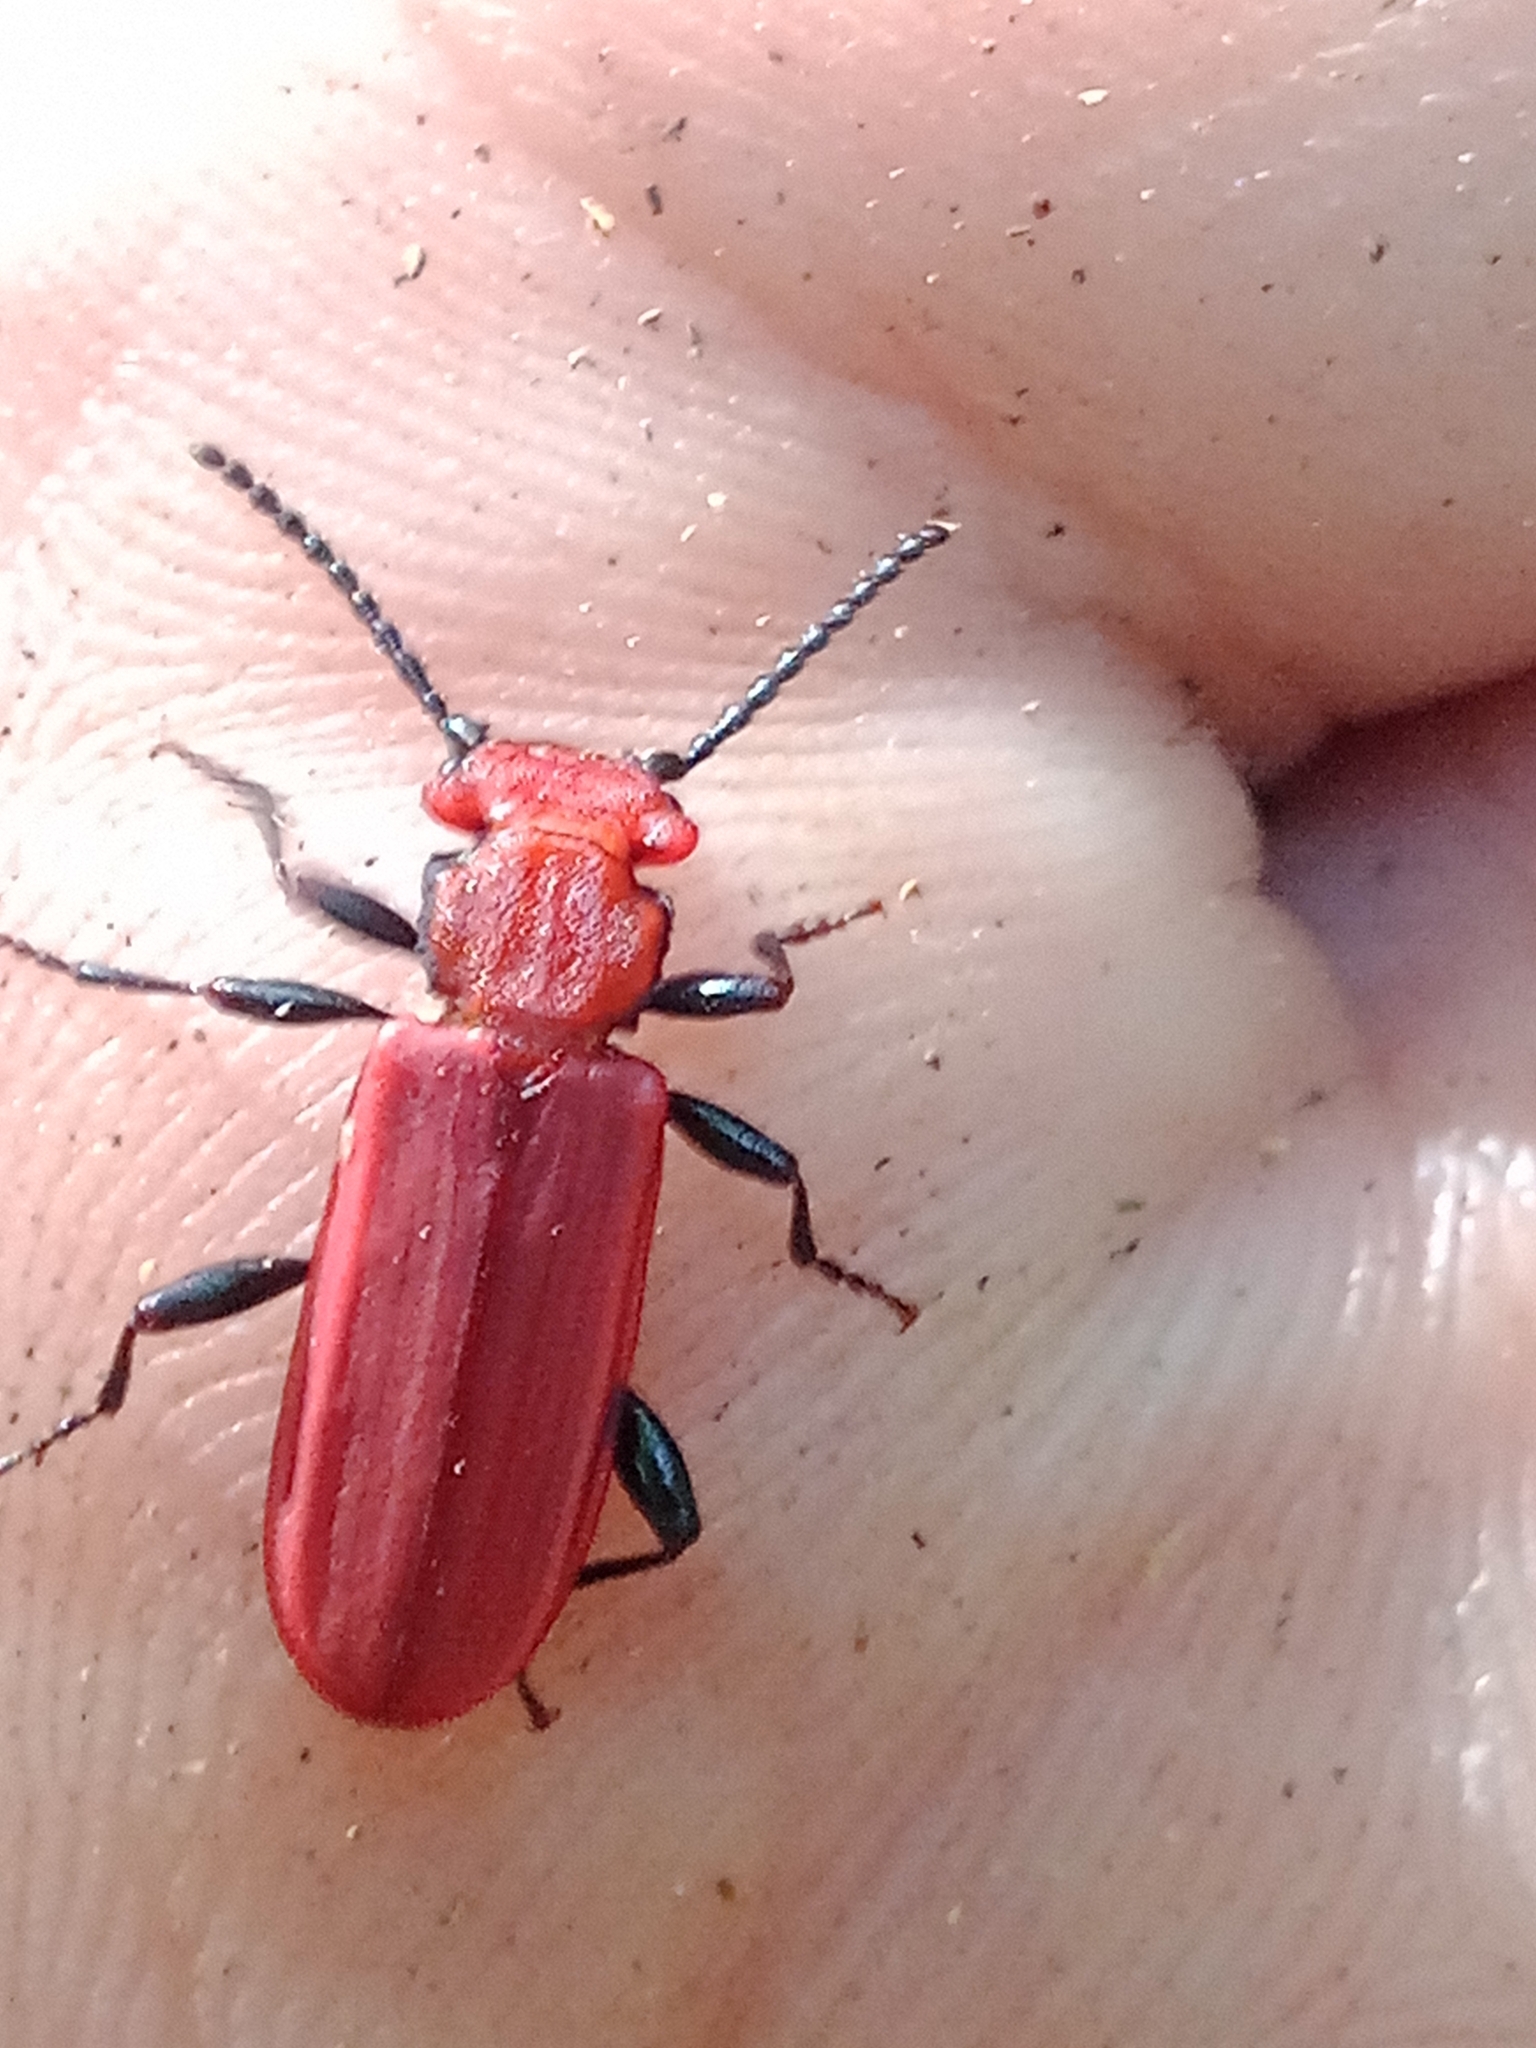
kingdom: Animalia
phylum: Arthropoda
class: Insecta
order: Coleoptera
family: Cucujidae
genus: Cucujus
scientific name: Cucujus cinnaberinus
